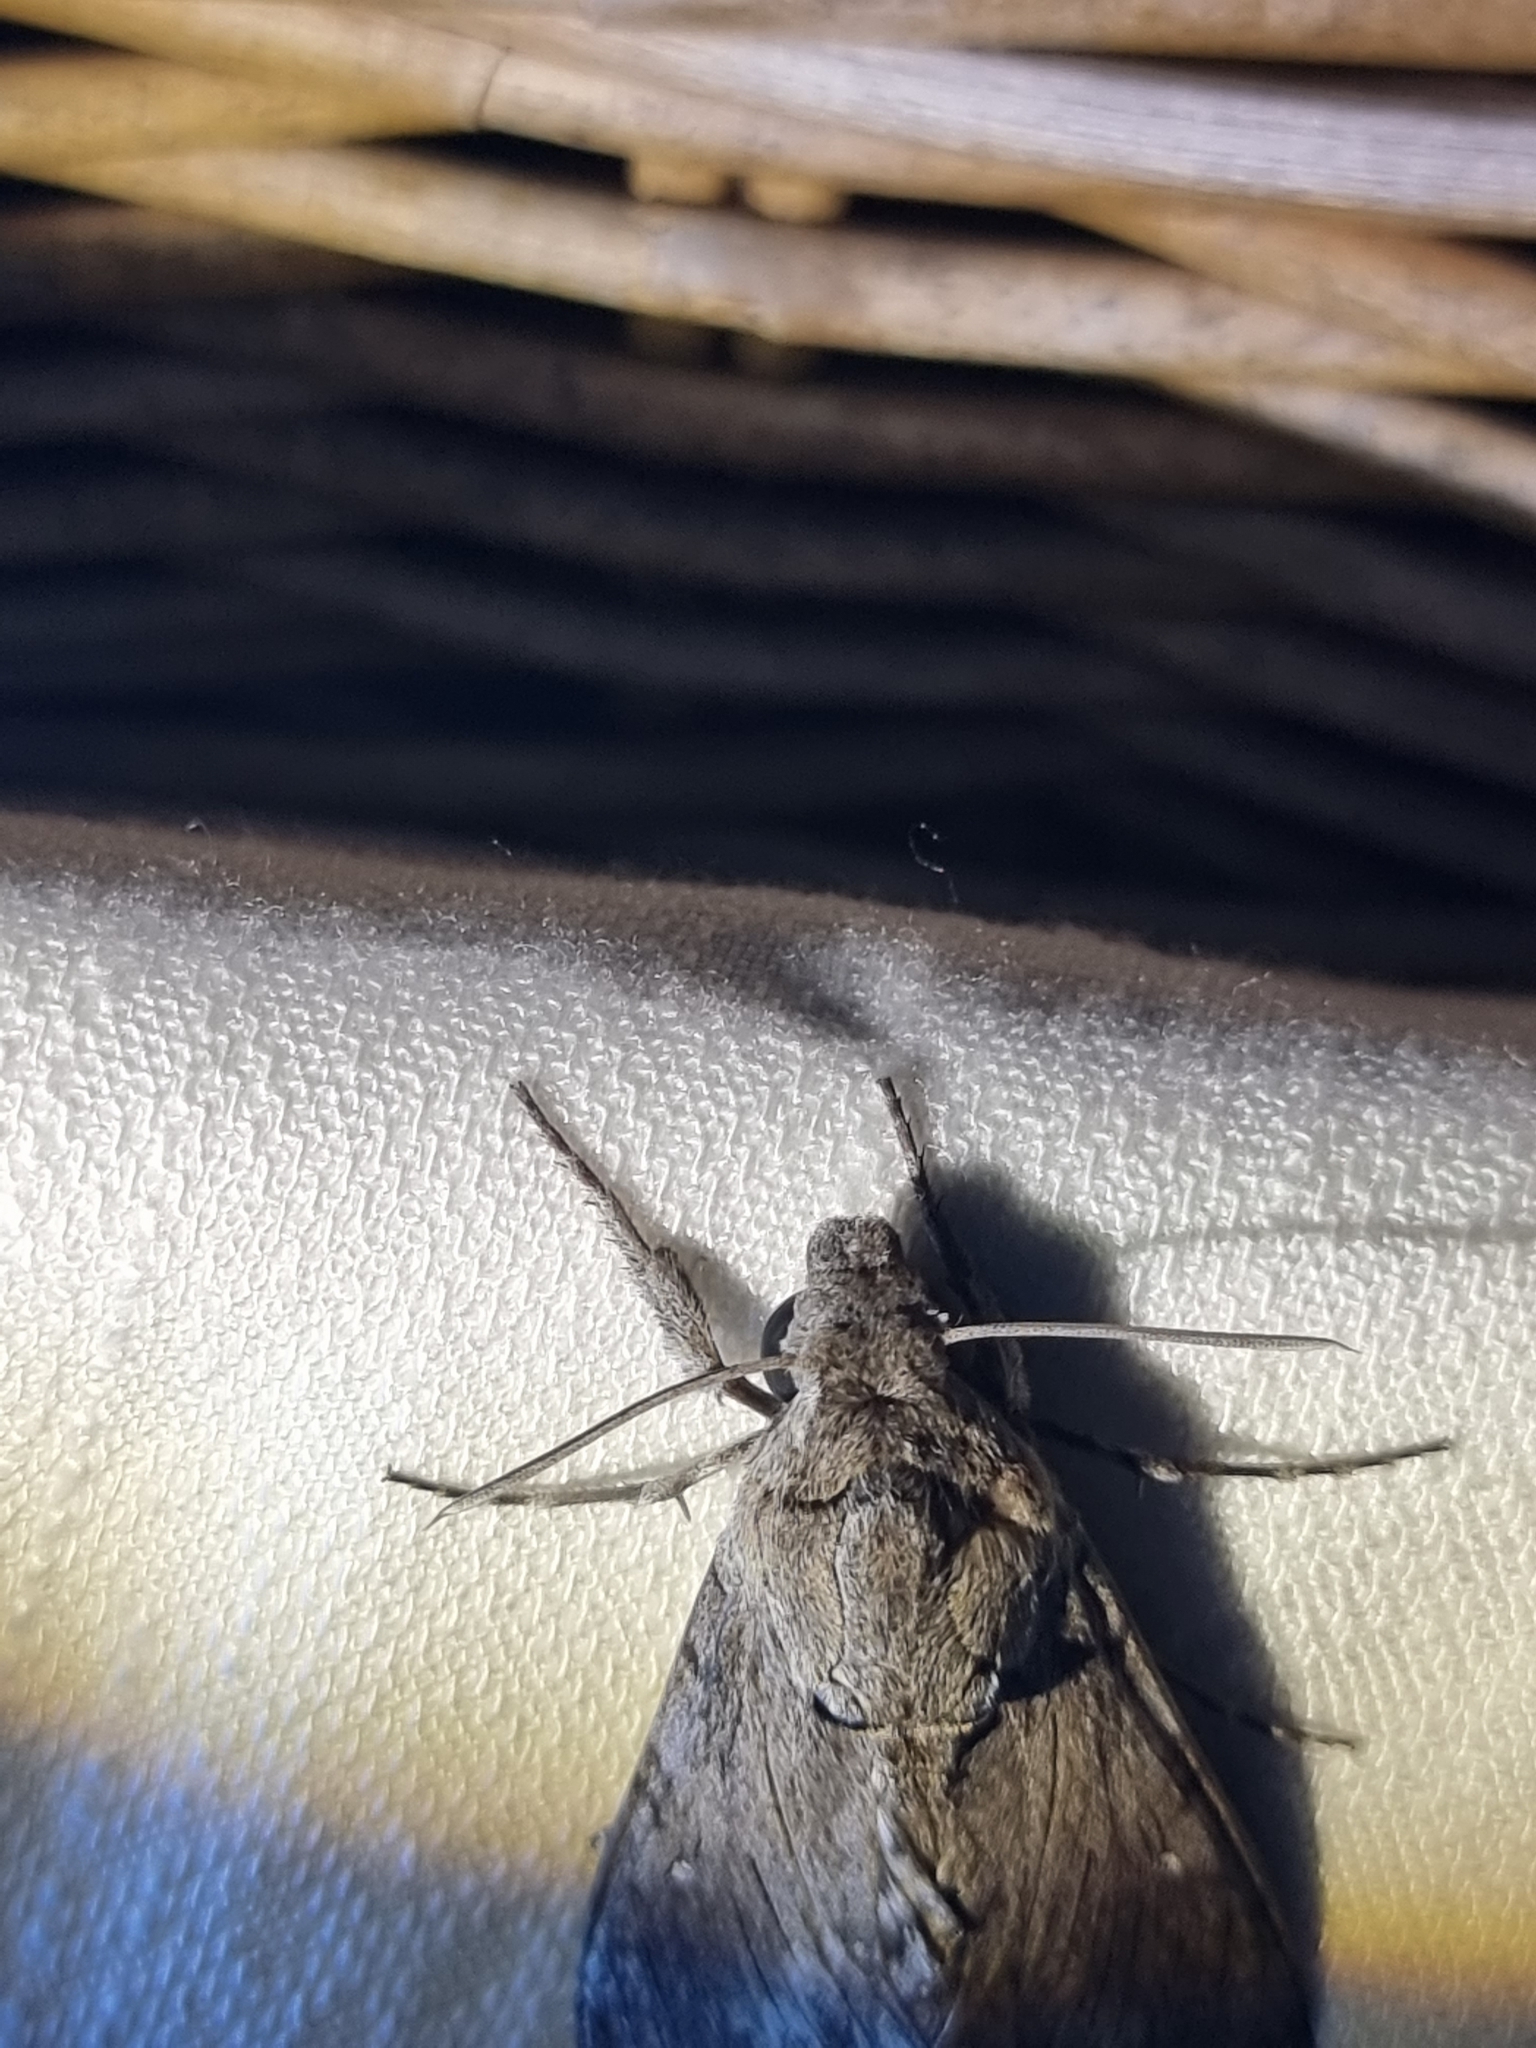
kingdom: Animalia
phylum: Arthropoda
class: Insecta
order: Lepidoptera
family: Sphingidae
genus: Agrius
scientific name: Agrius convolvuli
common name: Convolvulus hawkmoth
